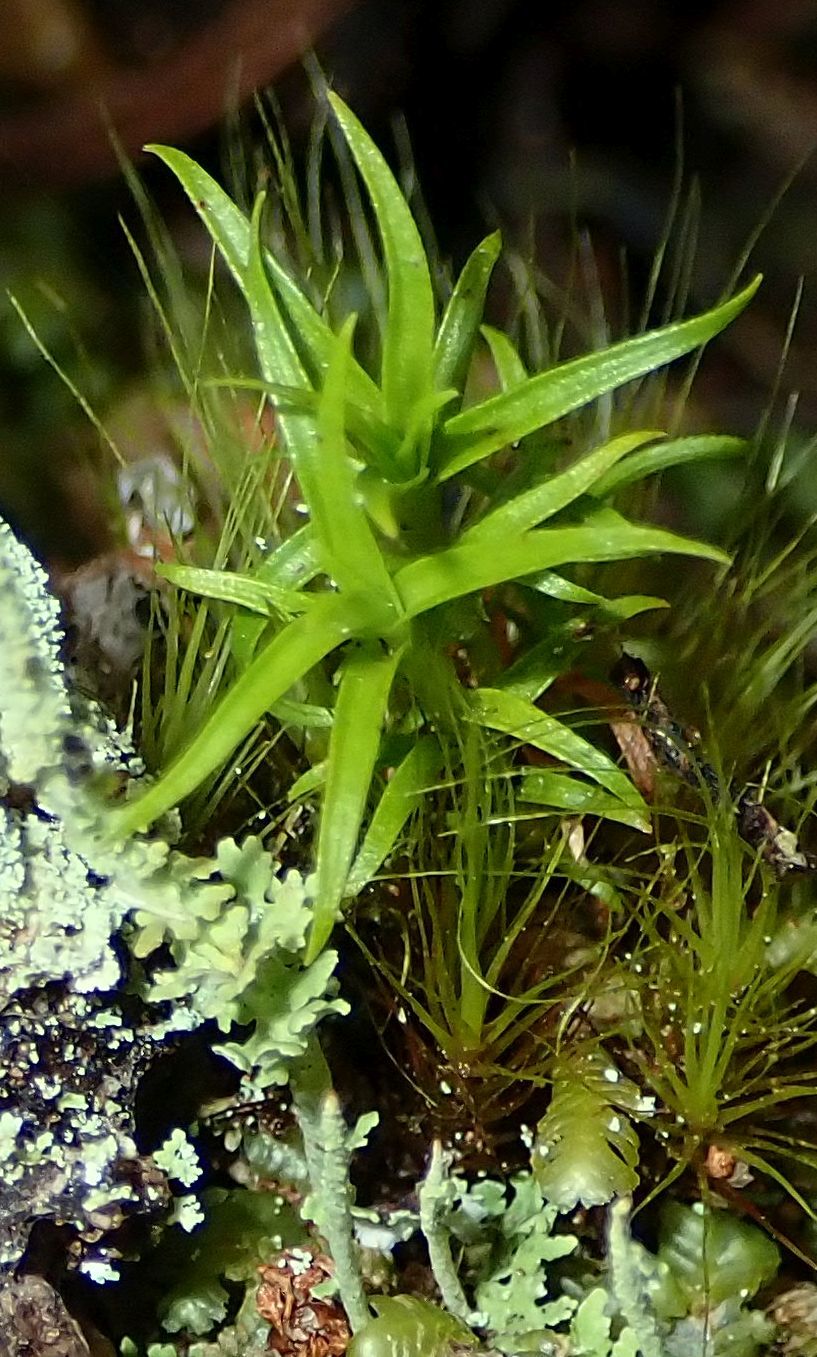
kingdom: Plantae
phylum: Tracheophyta
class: Magnoliopsida
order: Ericales
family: Ericaceae
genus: Dracophyllum
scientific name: Dracophyllum longifolium
